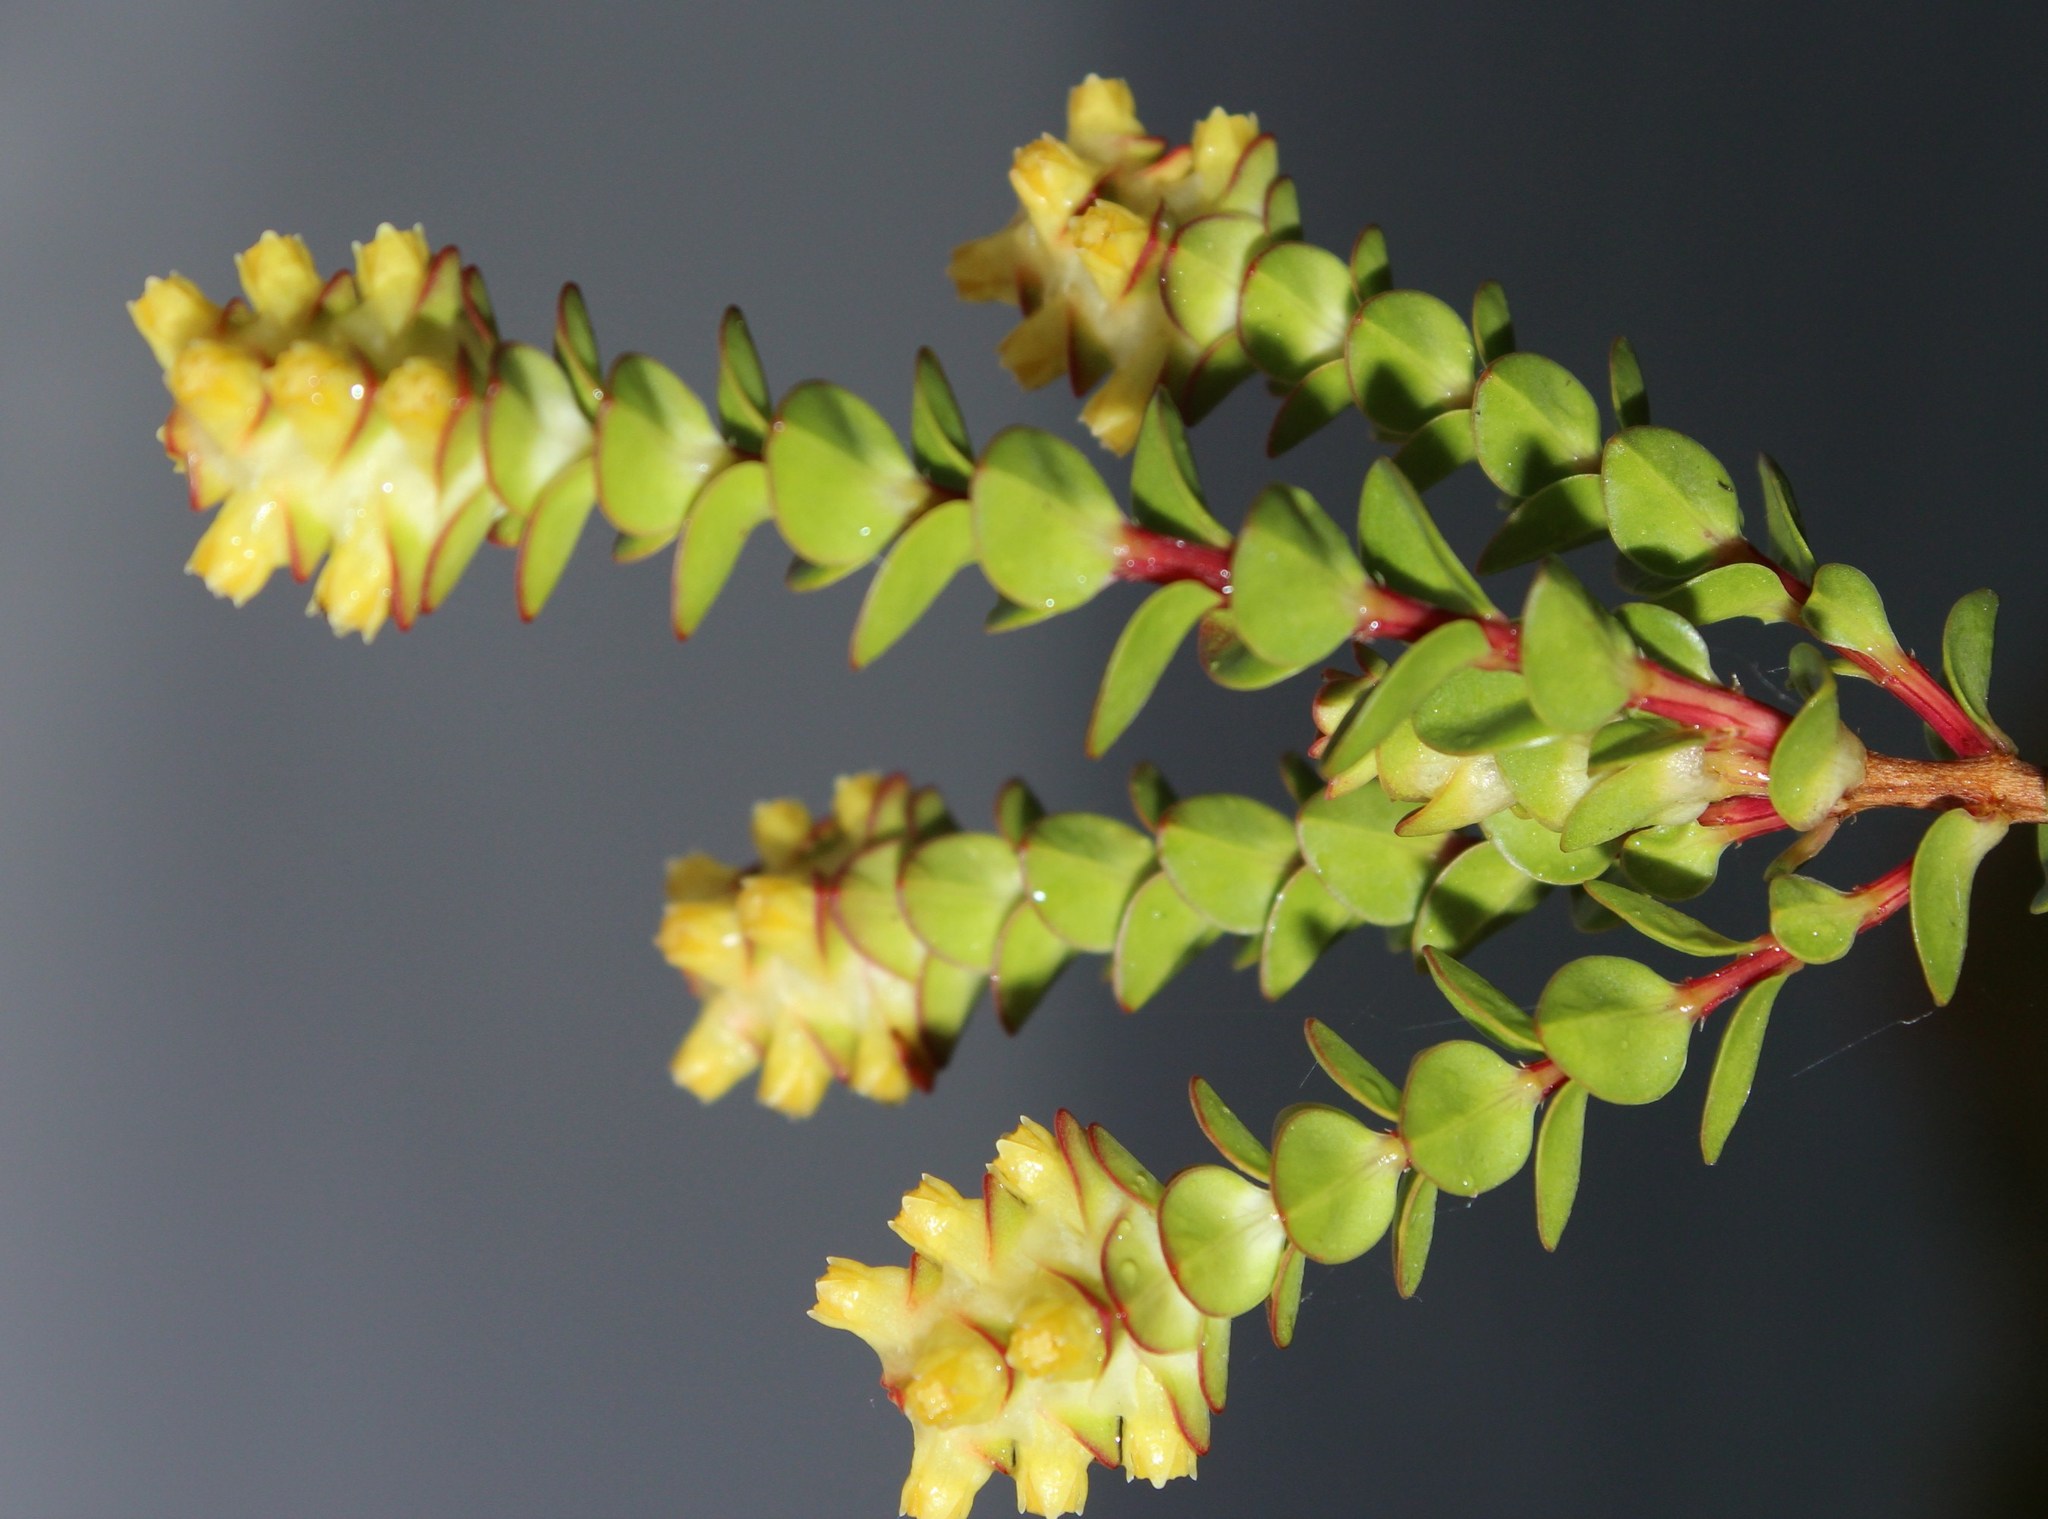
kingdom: Plantae
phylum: Tracheophyta
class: Magnoliopsida
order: Myrtales
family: Penaeaceae
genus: Penaea
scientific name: Penaea cneorum
